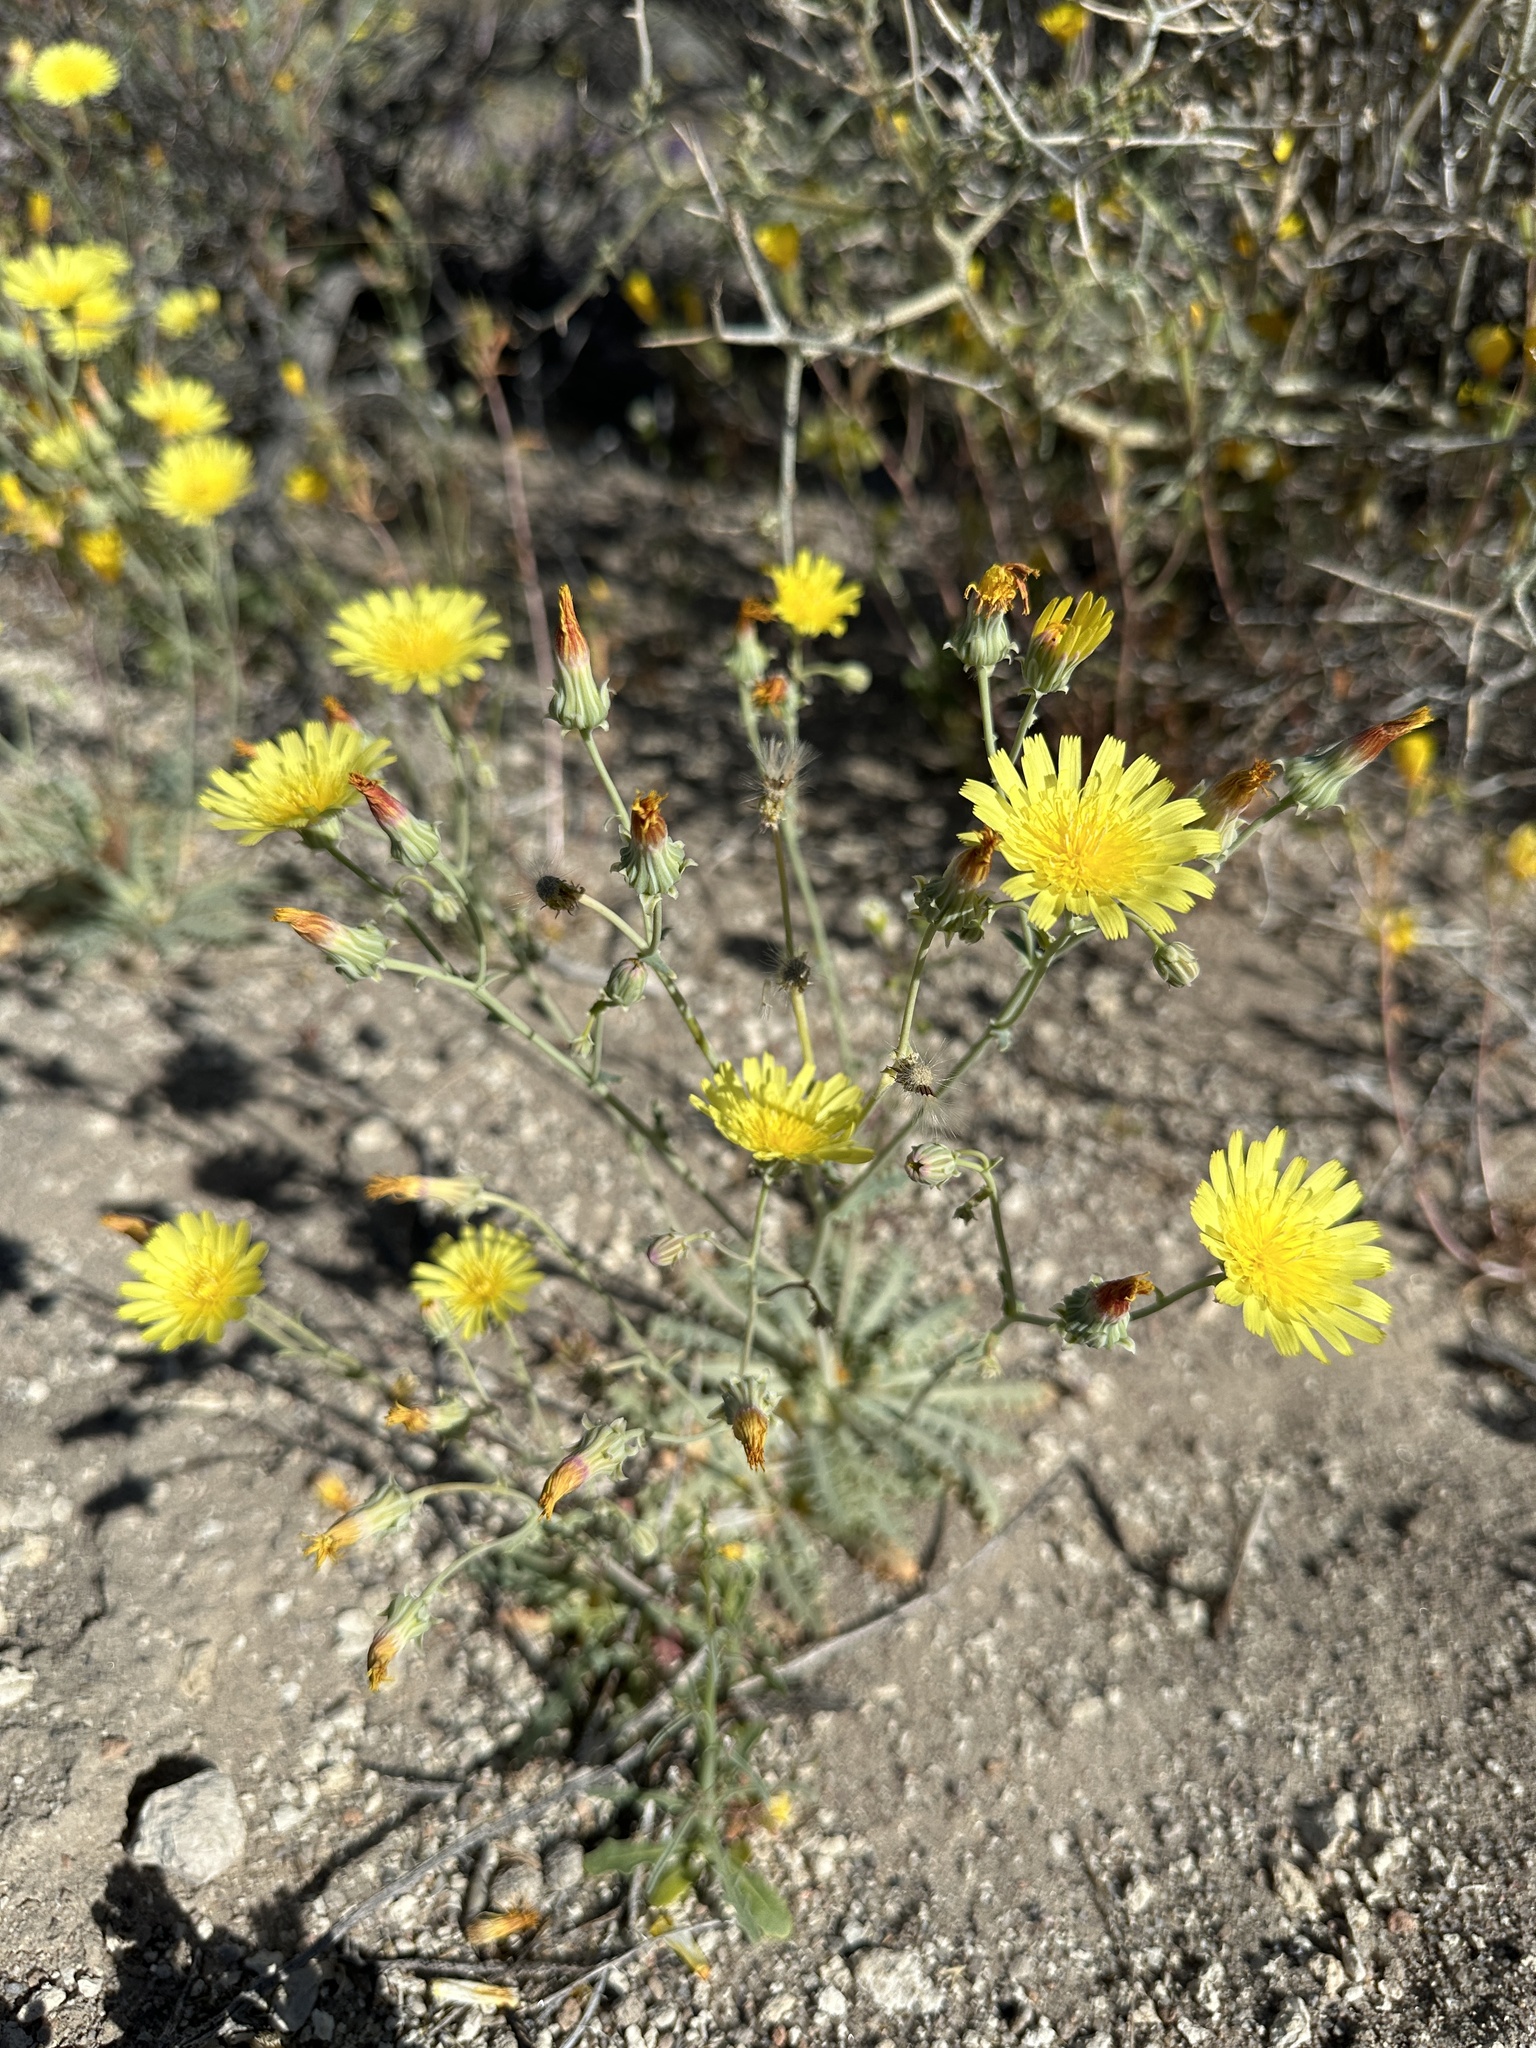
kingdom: Plantae
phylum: Tracheophyta
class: Magnoliopsida
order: Asterales
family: Asteraceae
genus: Malacothrix
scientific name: Malacothrix sonchoides
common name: Sow-thistle desert-dandelion
